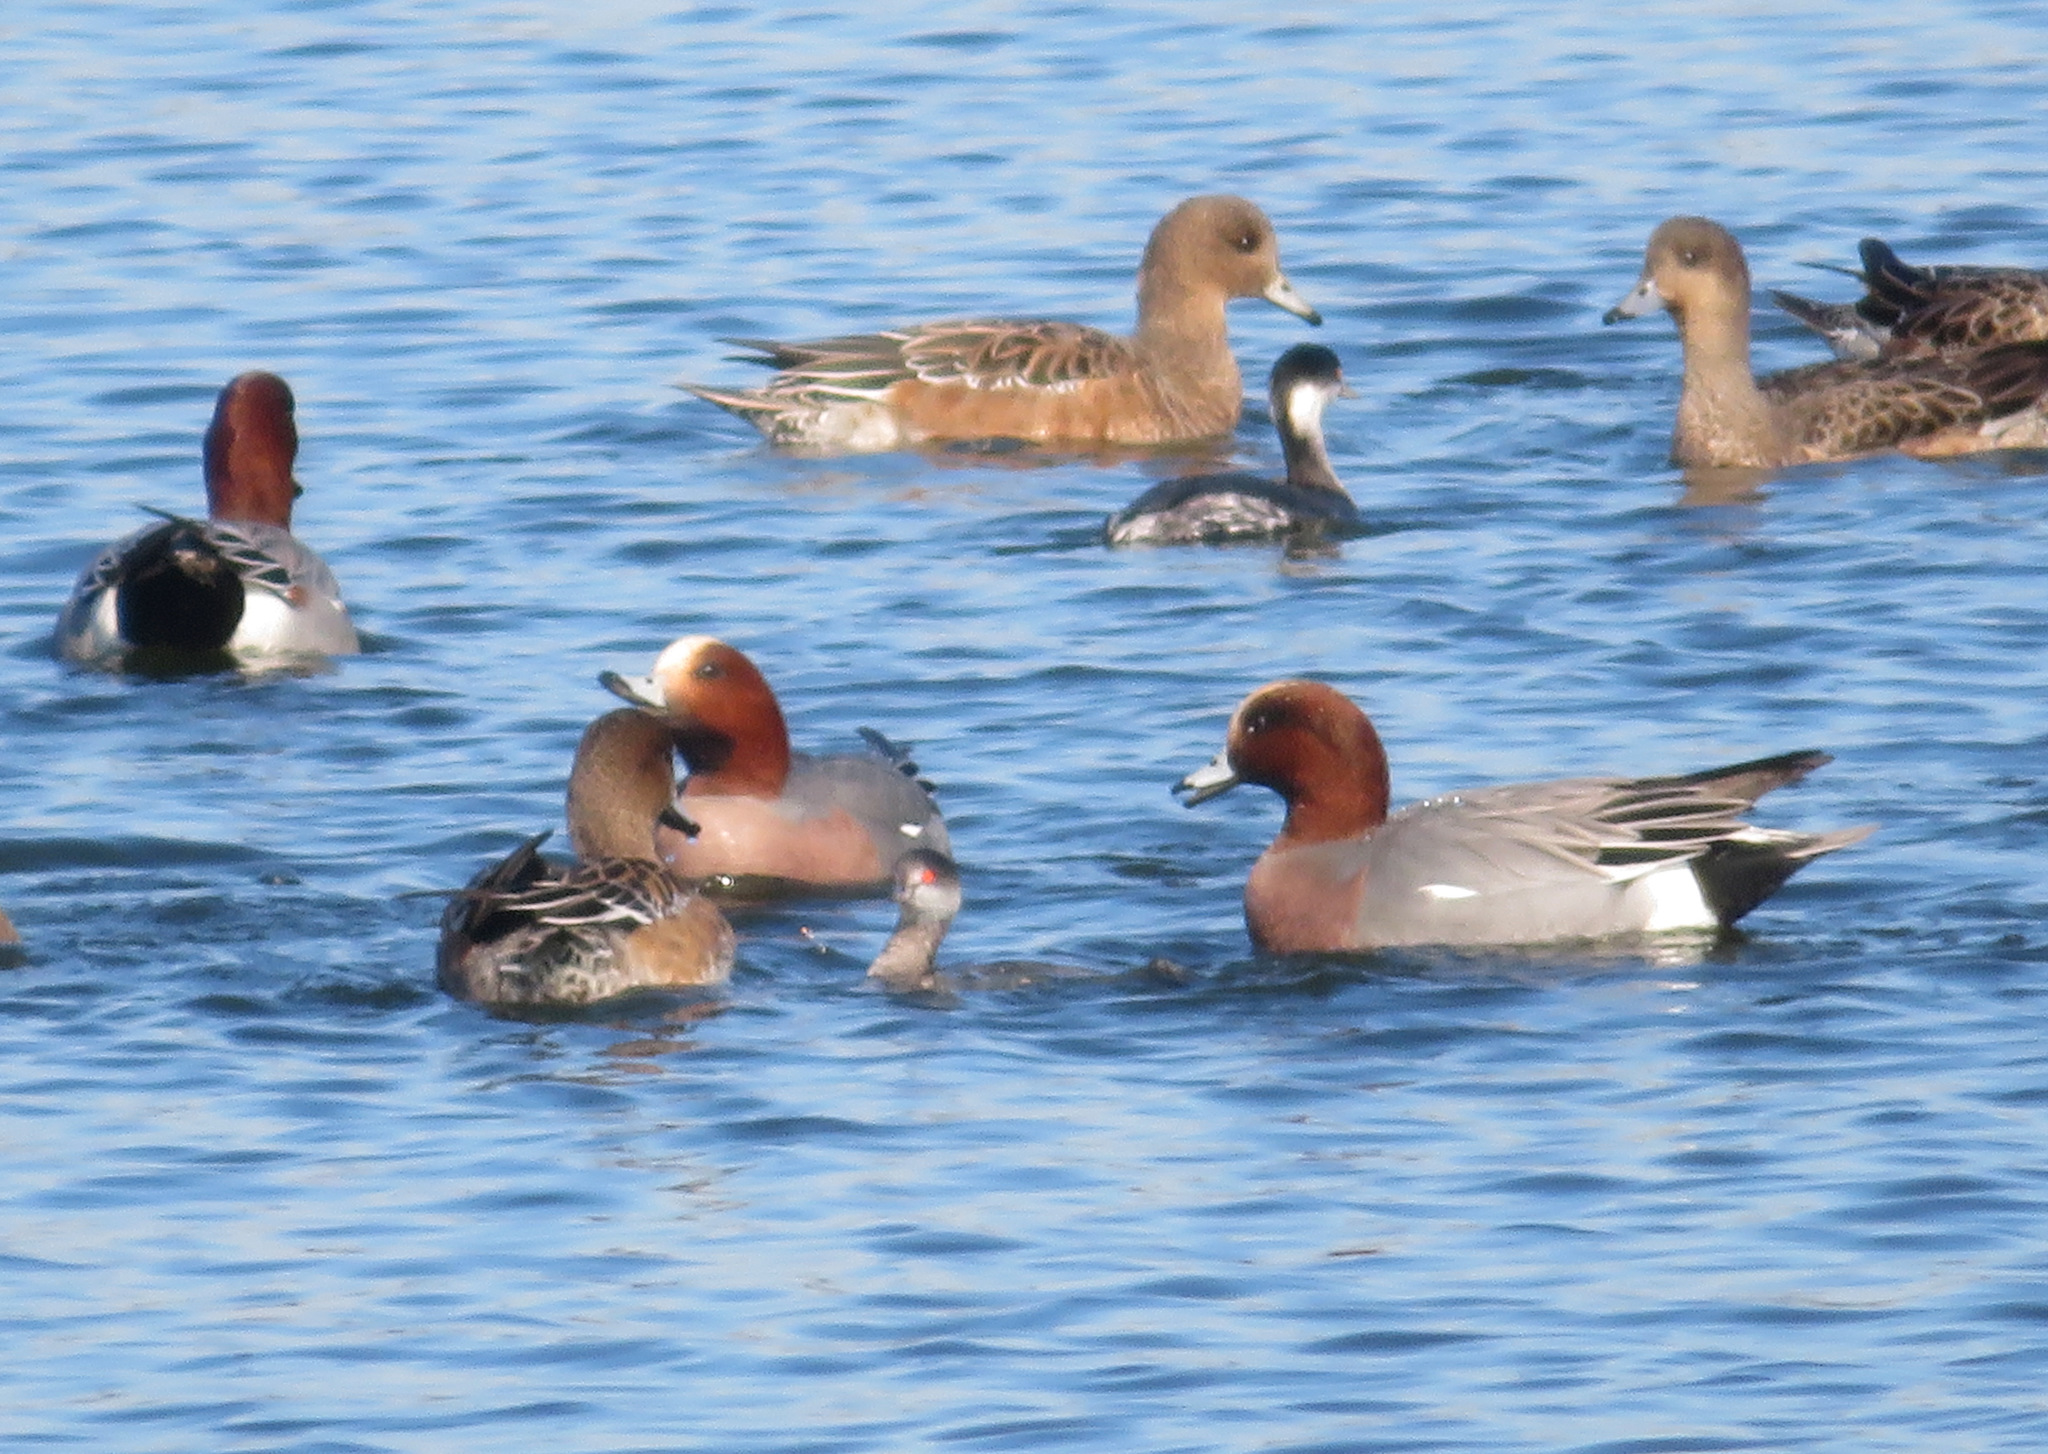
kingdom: Animalia
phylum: Chordata
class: Aves
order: Anseriformes
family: Anatidae
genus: Mareca
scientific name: Mareca penelope
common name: Eurasian wigeon
